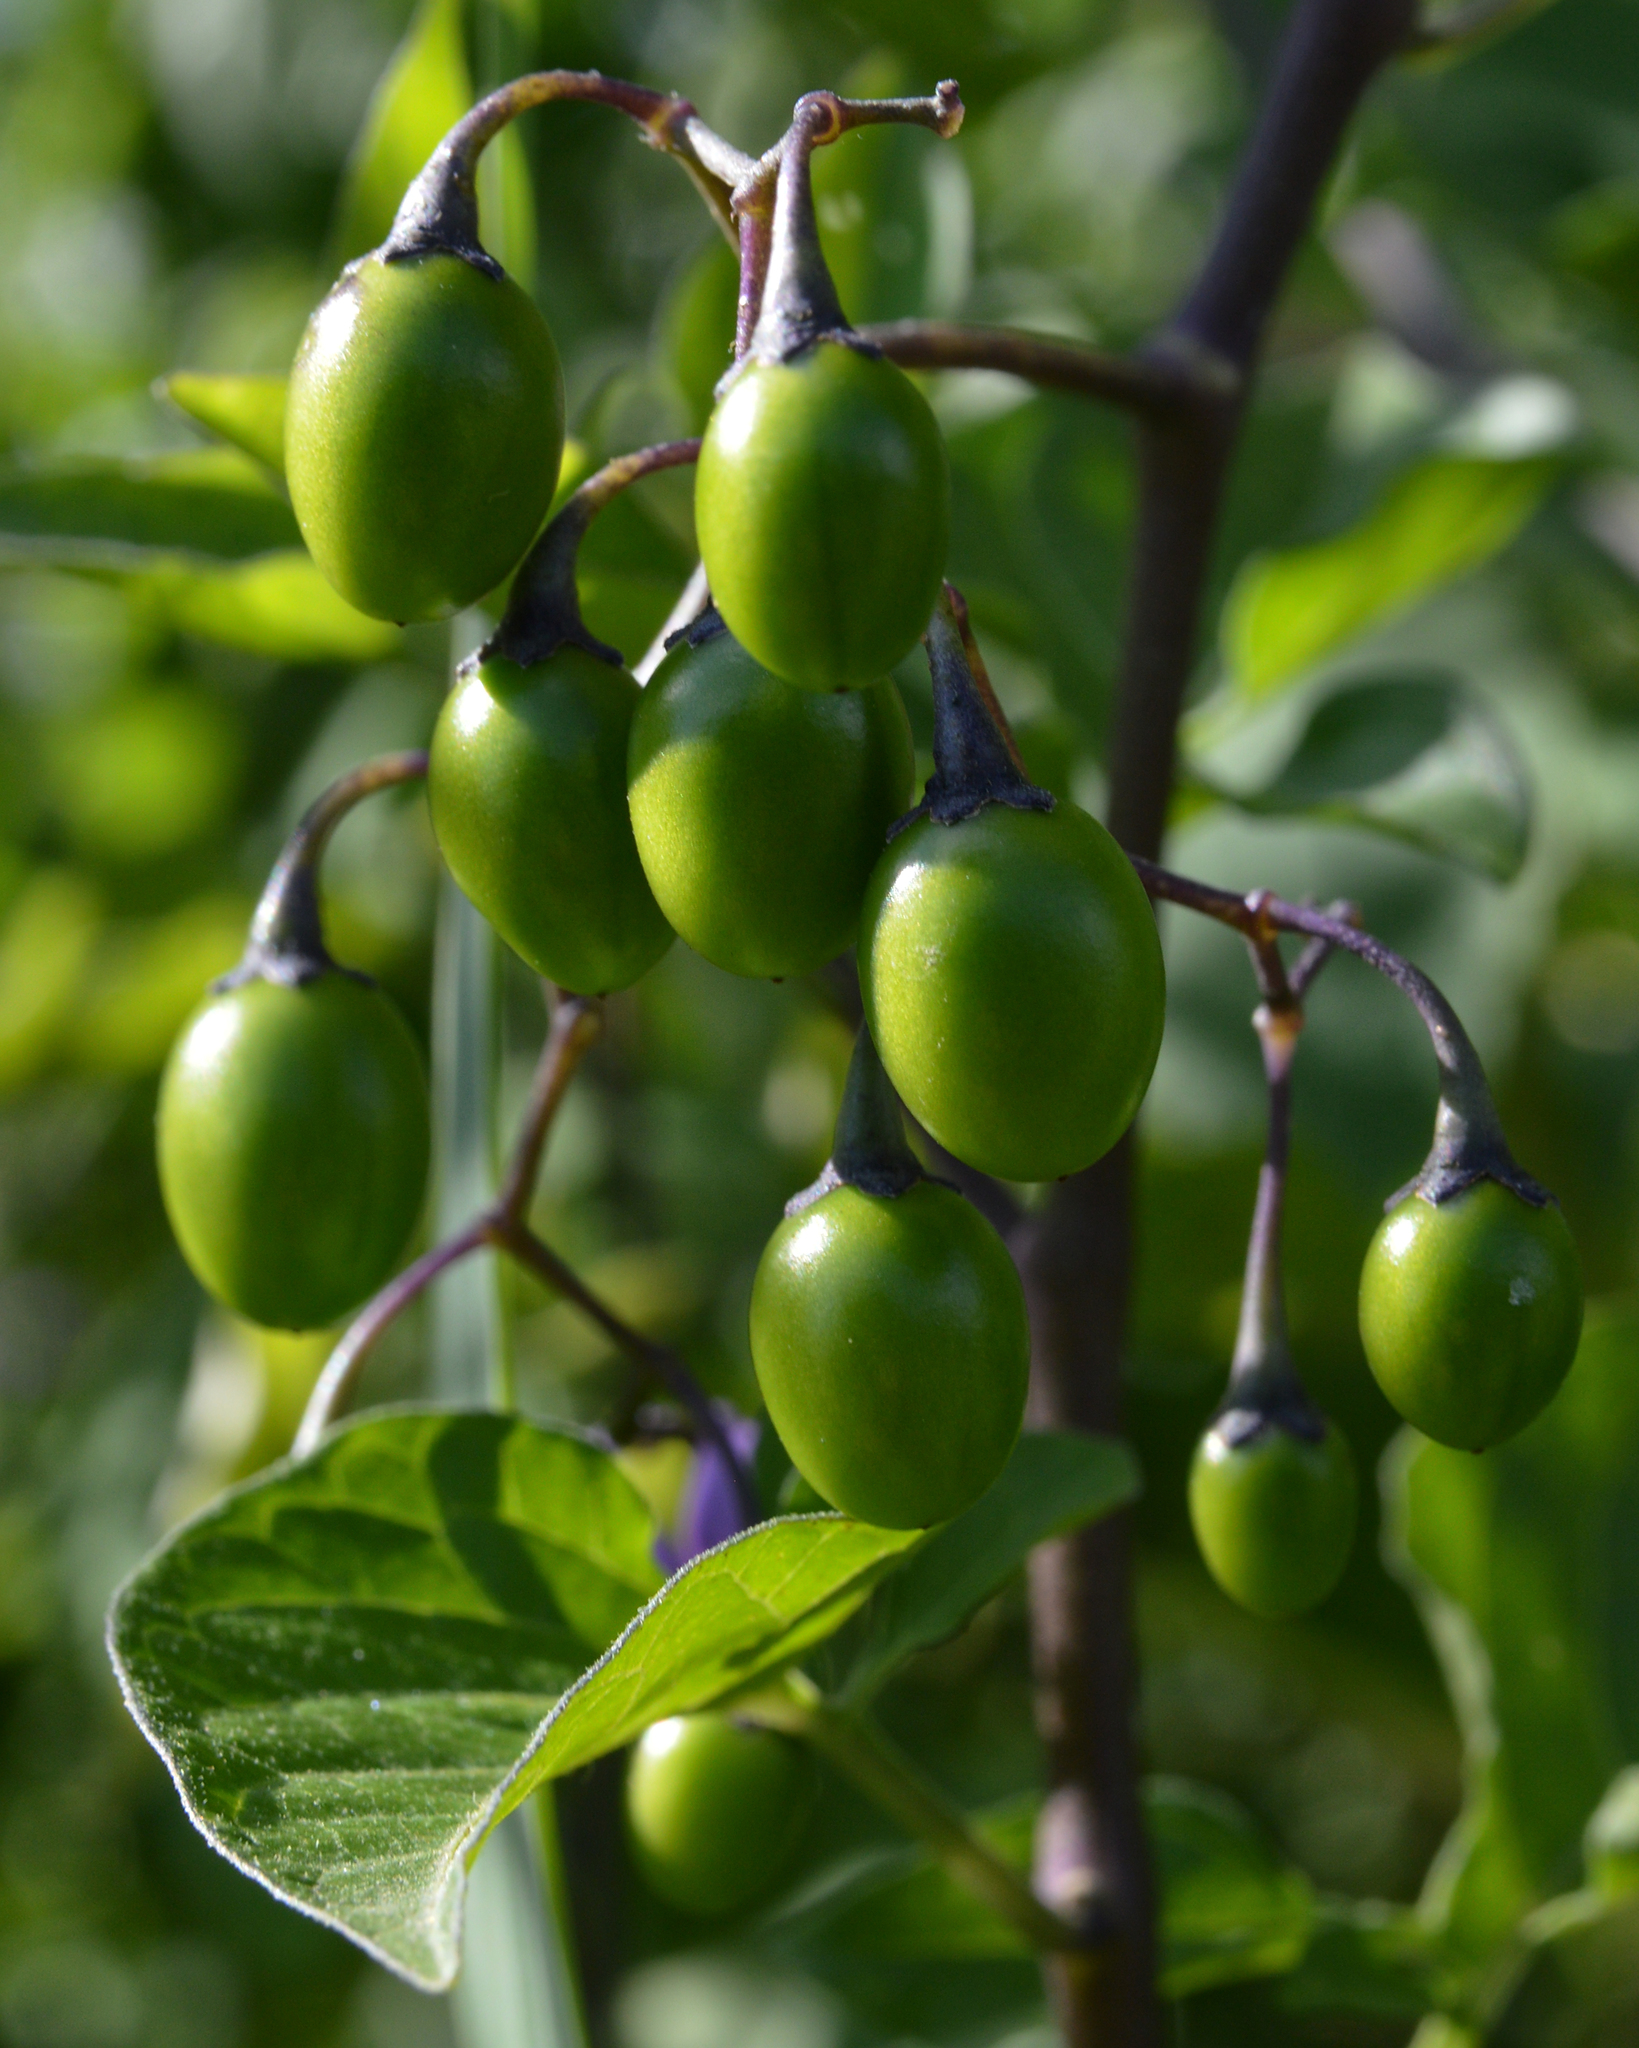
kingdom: Plantae
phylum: Tracheophyta
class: Magnoliopsida
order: Solanales
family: Solanaceae
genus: Solanum
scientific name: Solanum dulcamara
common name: Climbing nightshade
